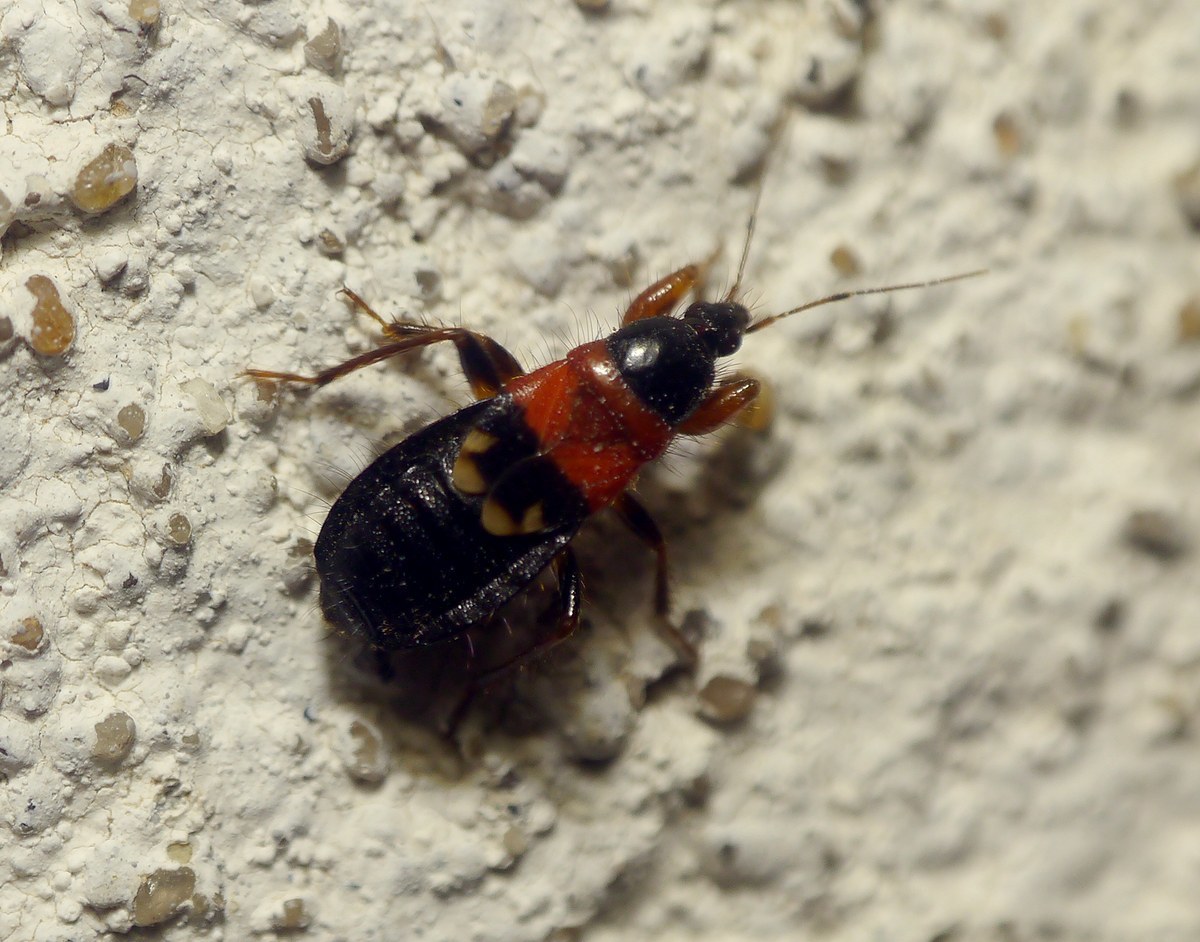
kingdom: Animalia
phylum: Arthropoda
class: Insecta
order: Hemiptera
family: Nabidae
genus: Prostemma
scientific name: Prostemma sanguineum
